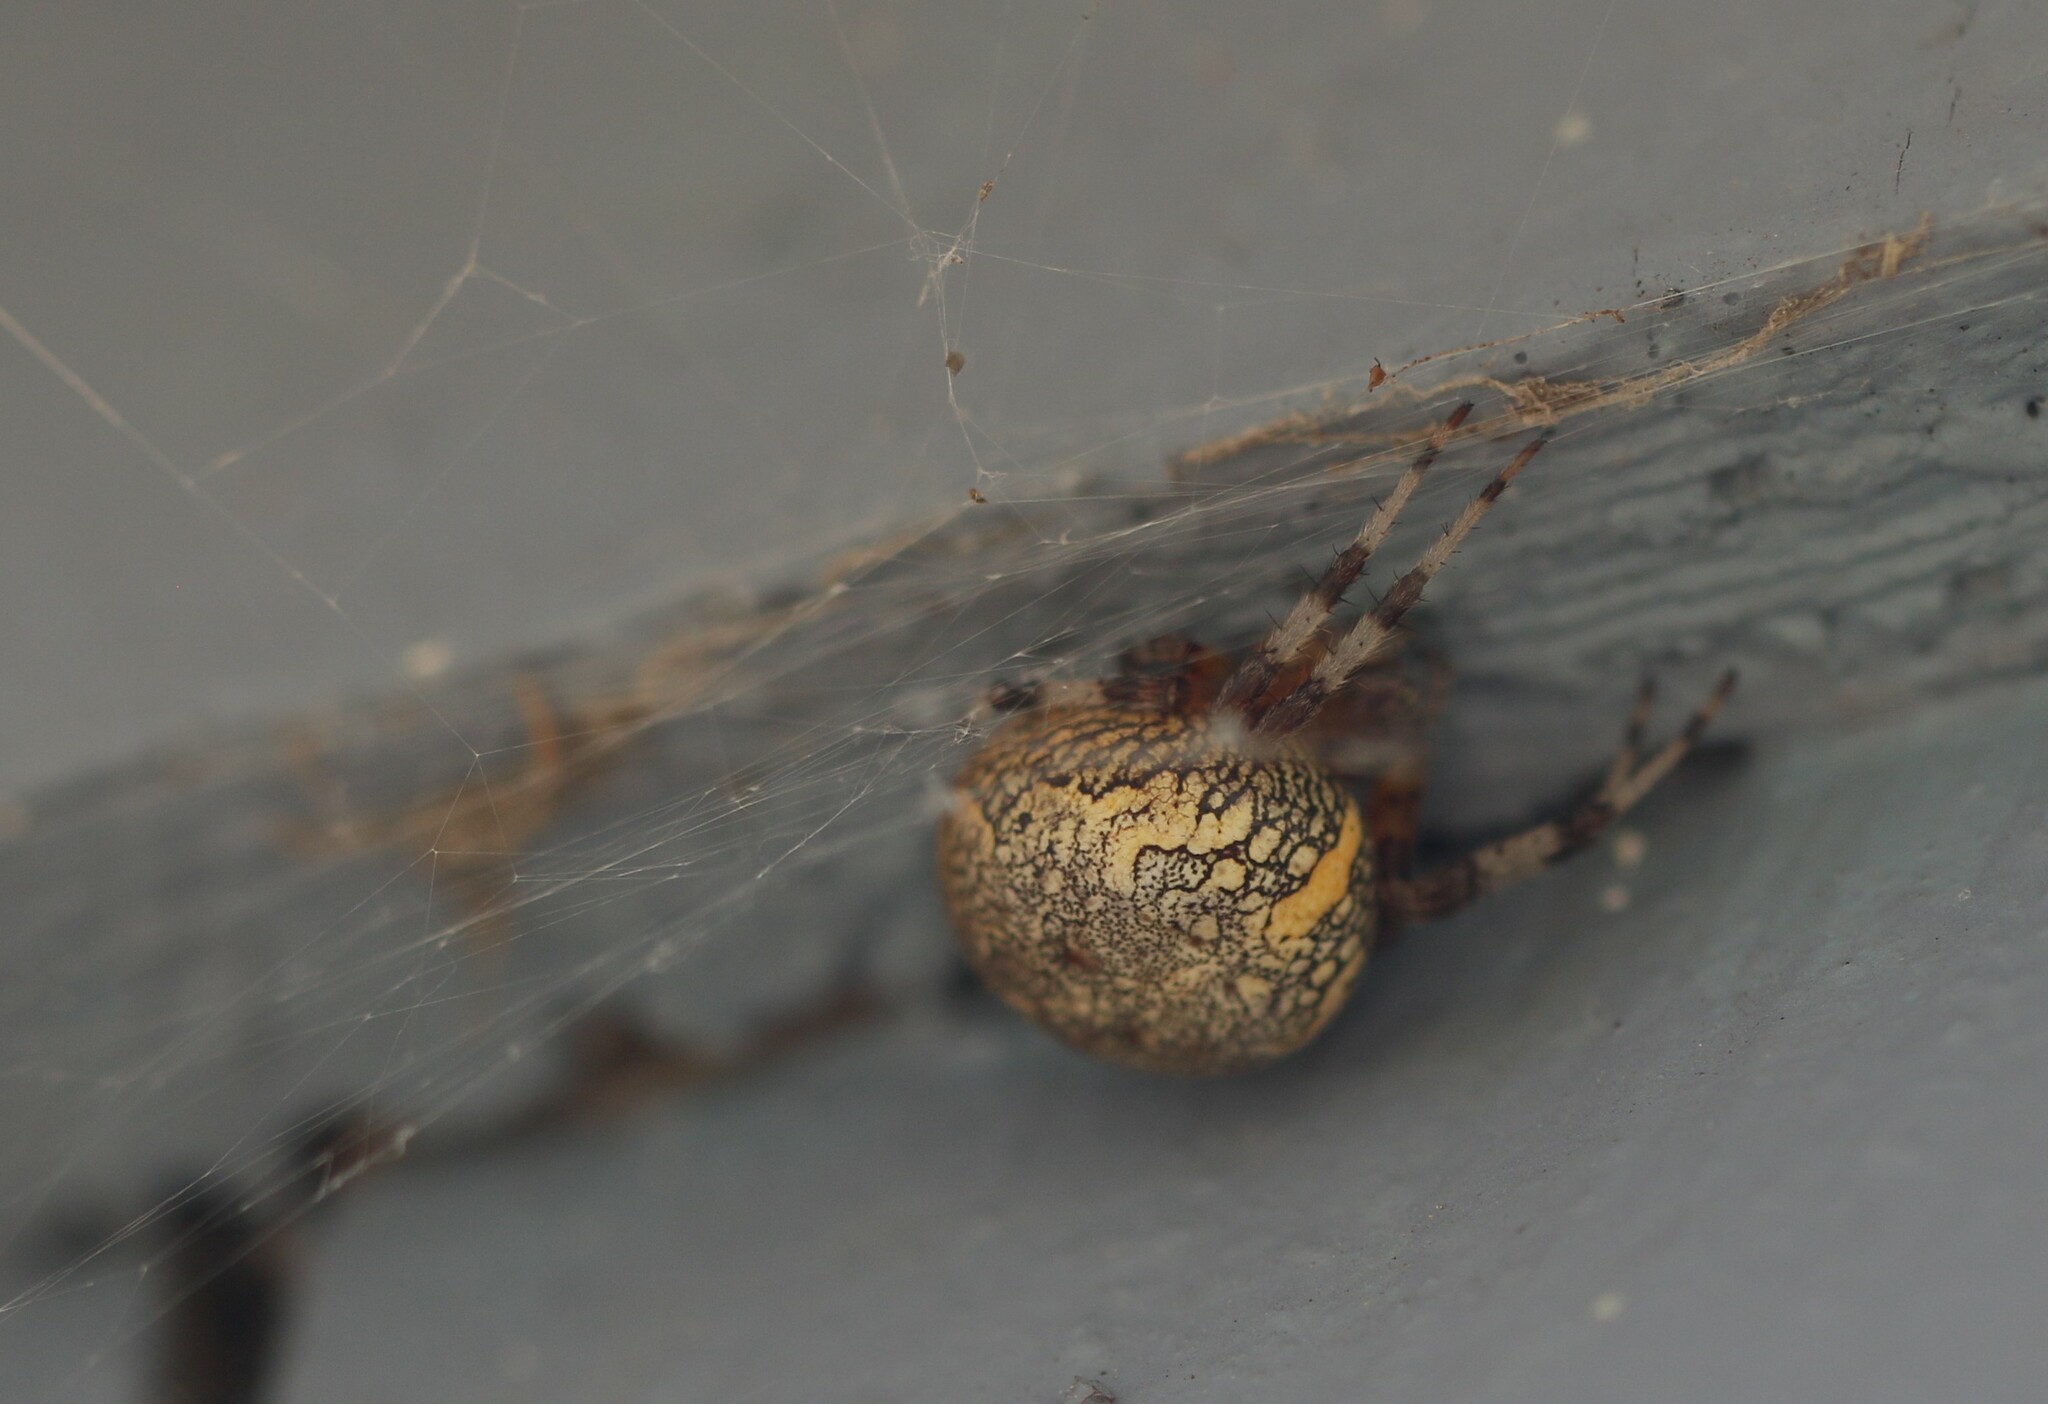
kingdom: Animalia
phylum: Arthropoda
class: Arachnida
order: Araneae
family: Araneidae
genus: Araneus
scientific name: Araneus marmoreus
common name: Marbled orbweaver
